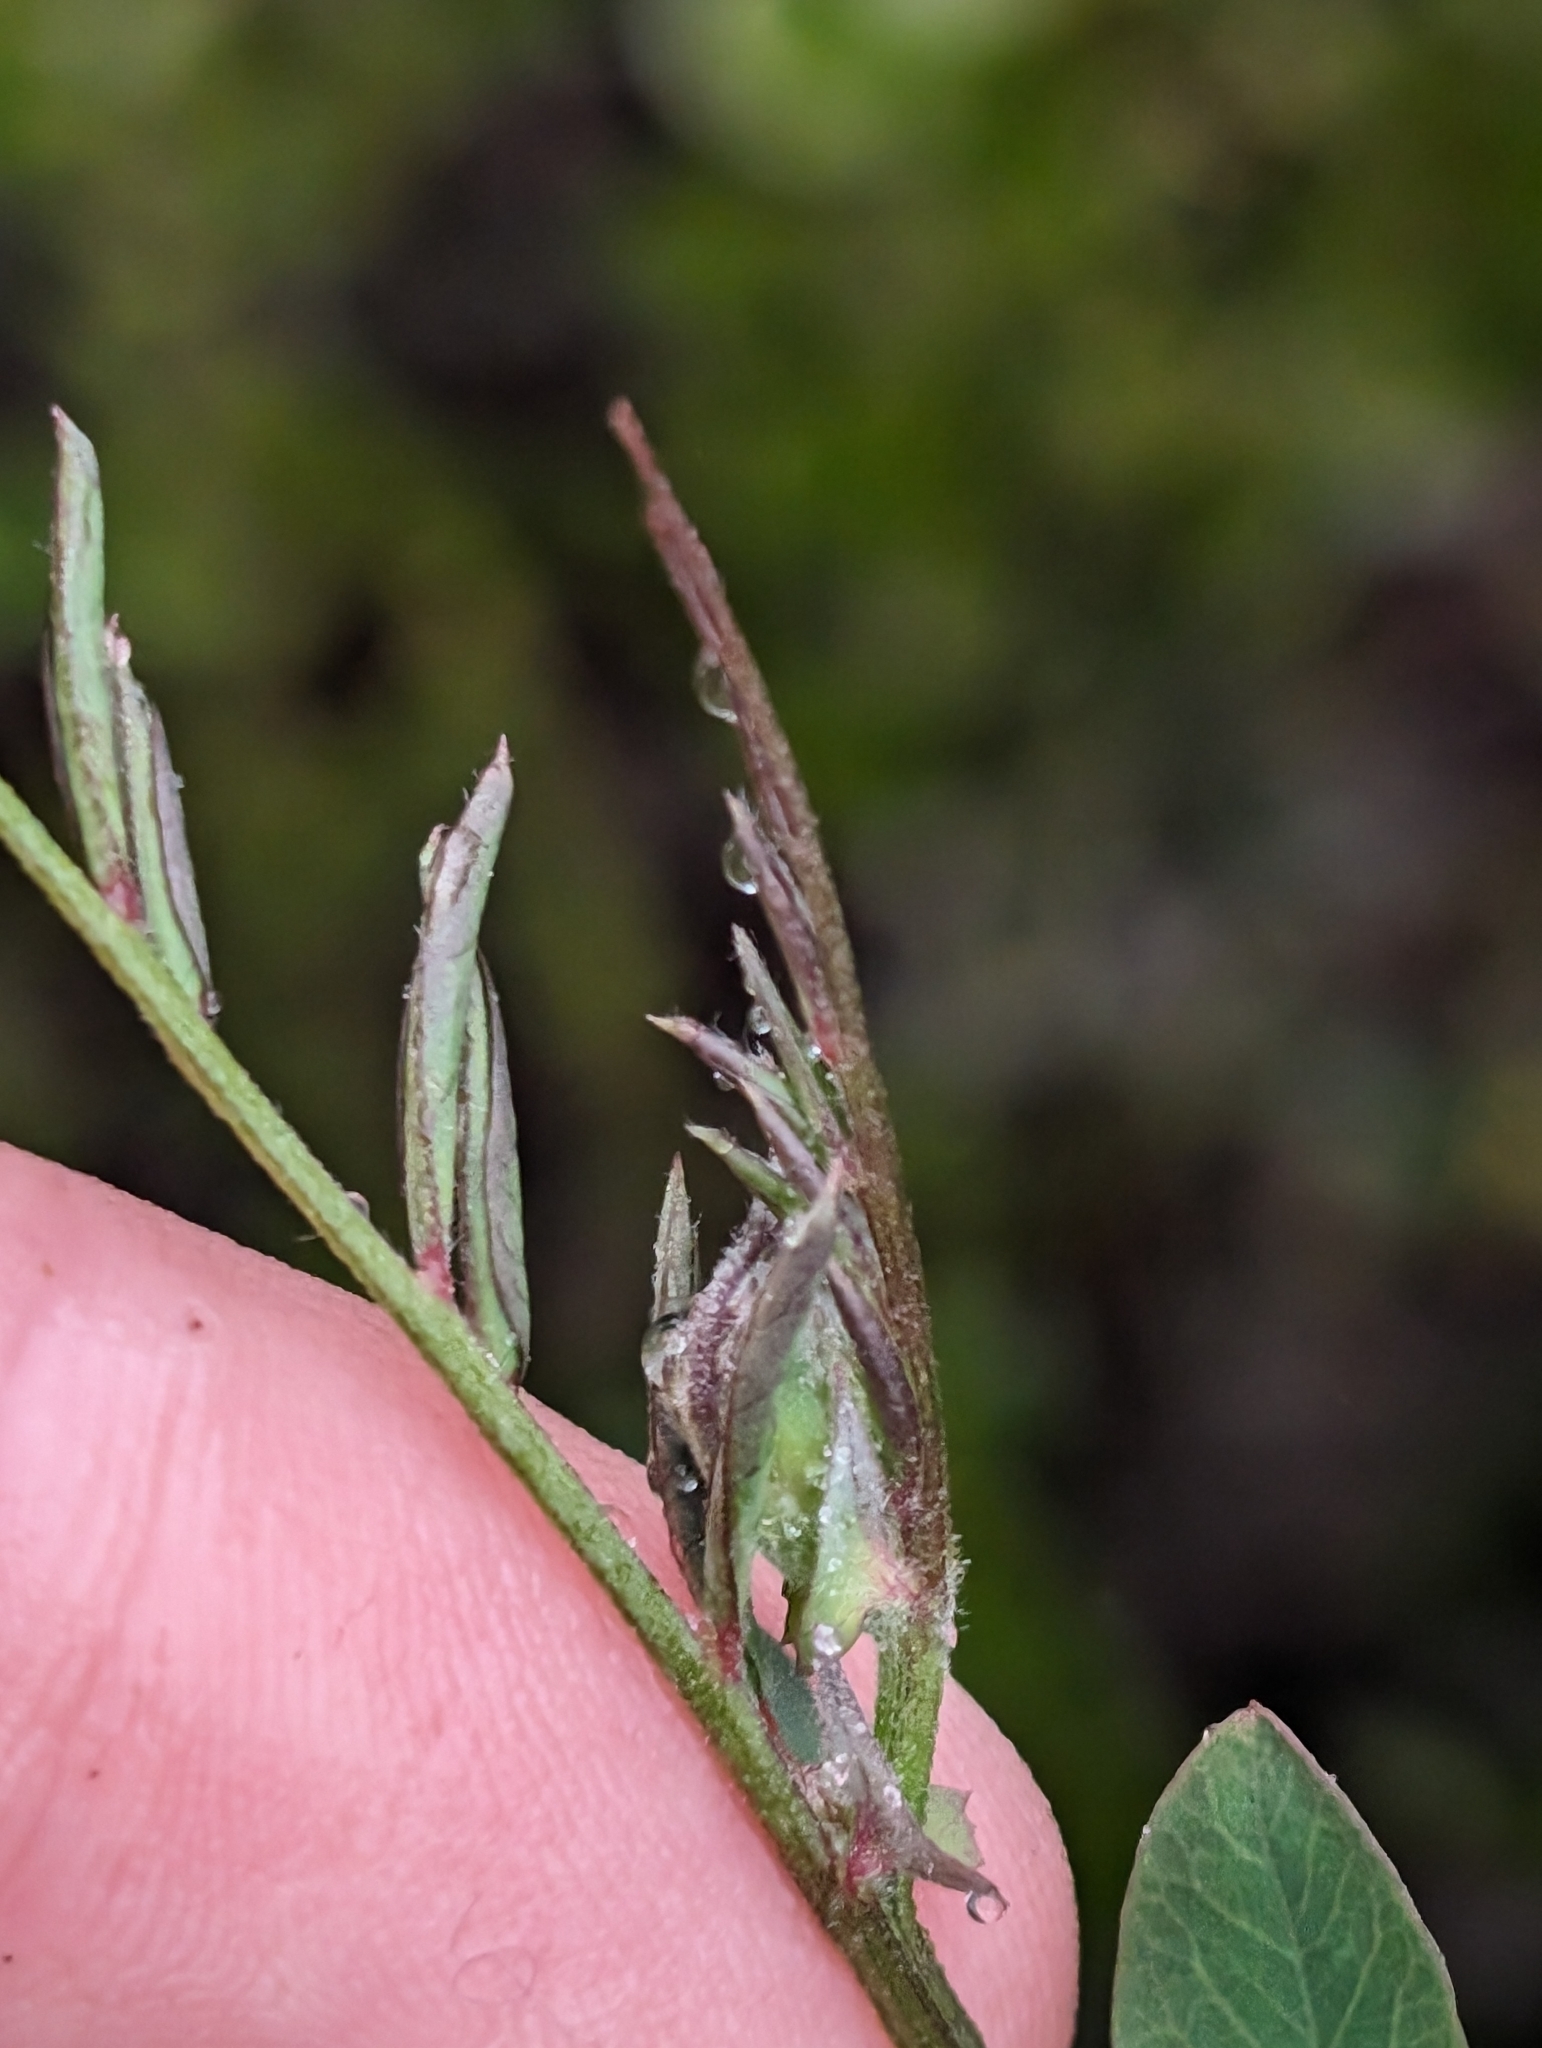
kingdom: Plantae
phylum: Tracheophyta
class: Magnoliopsida
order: Fabales
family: Fabaceae
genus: Lathyrus
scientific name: Lathyrus vestitus
